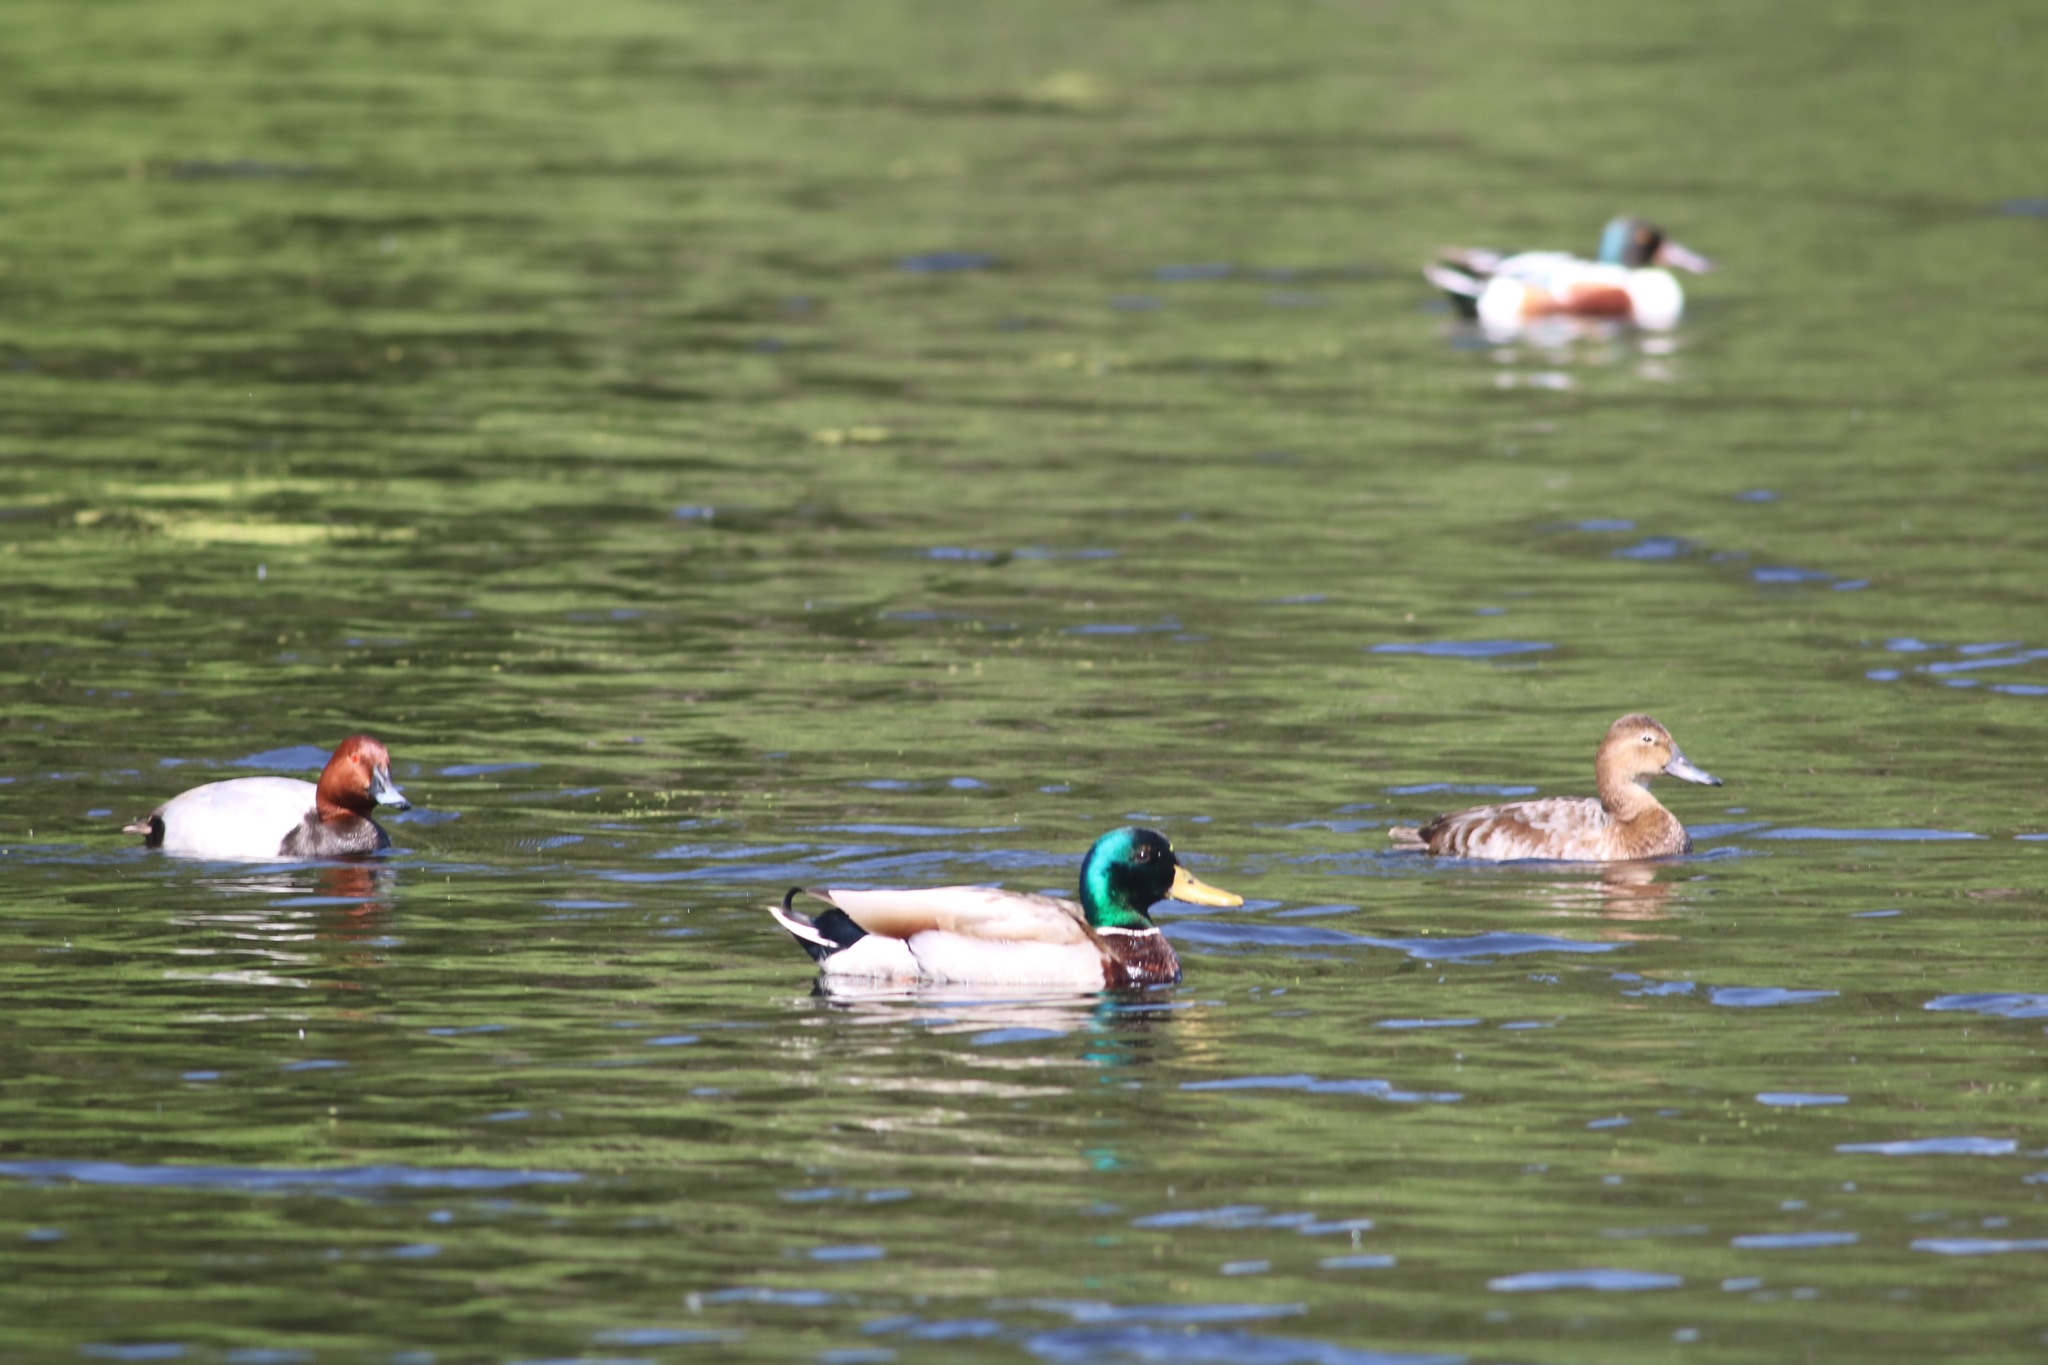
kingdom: Animalia
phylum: Chordata
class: Aves
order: Anseriformes
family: Anatidae
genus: Aythya
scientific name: Aythya ferina
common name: Common pochard
